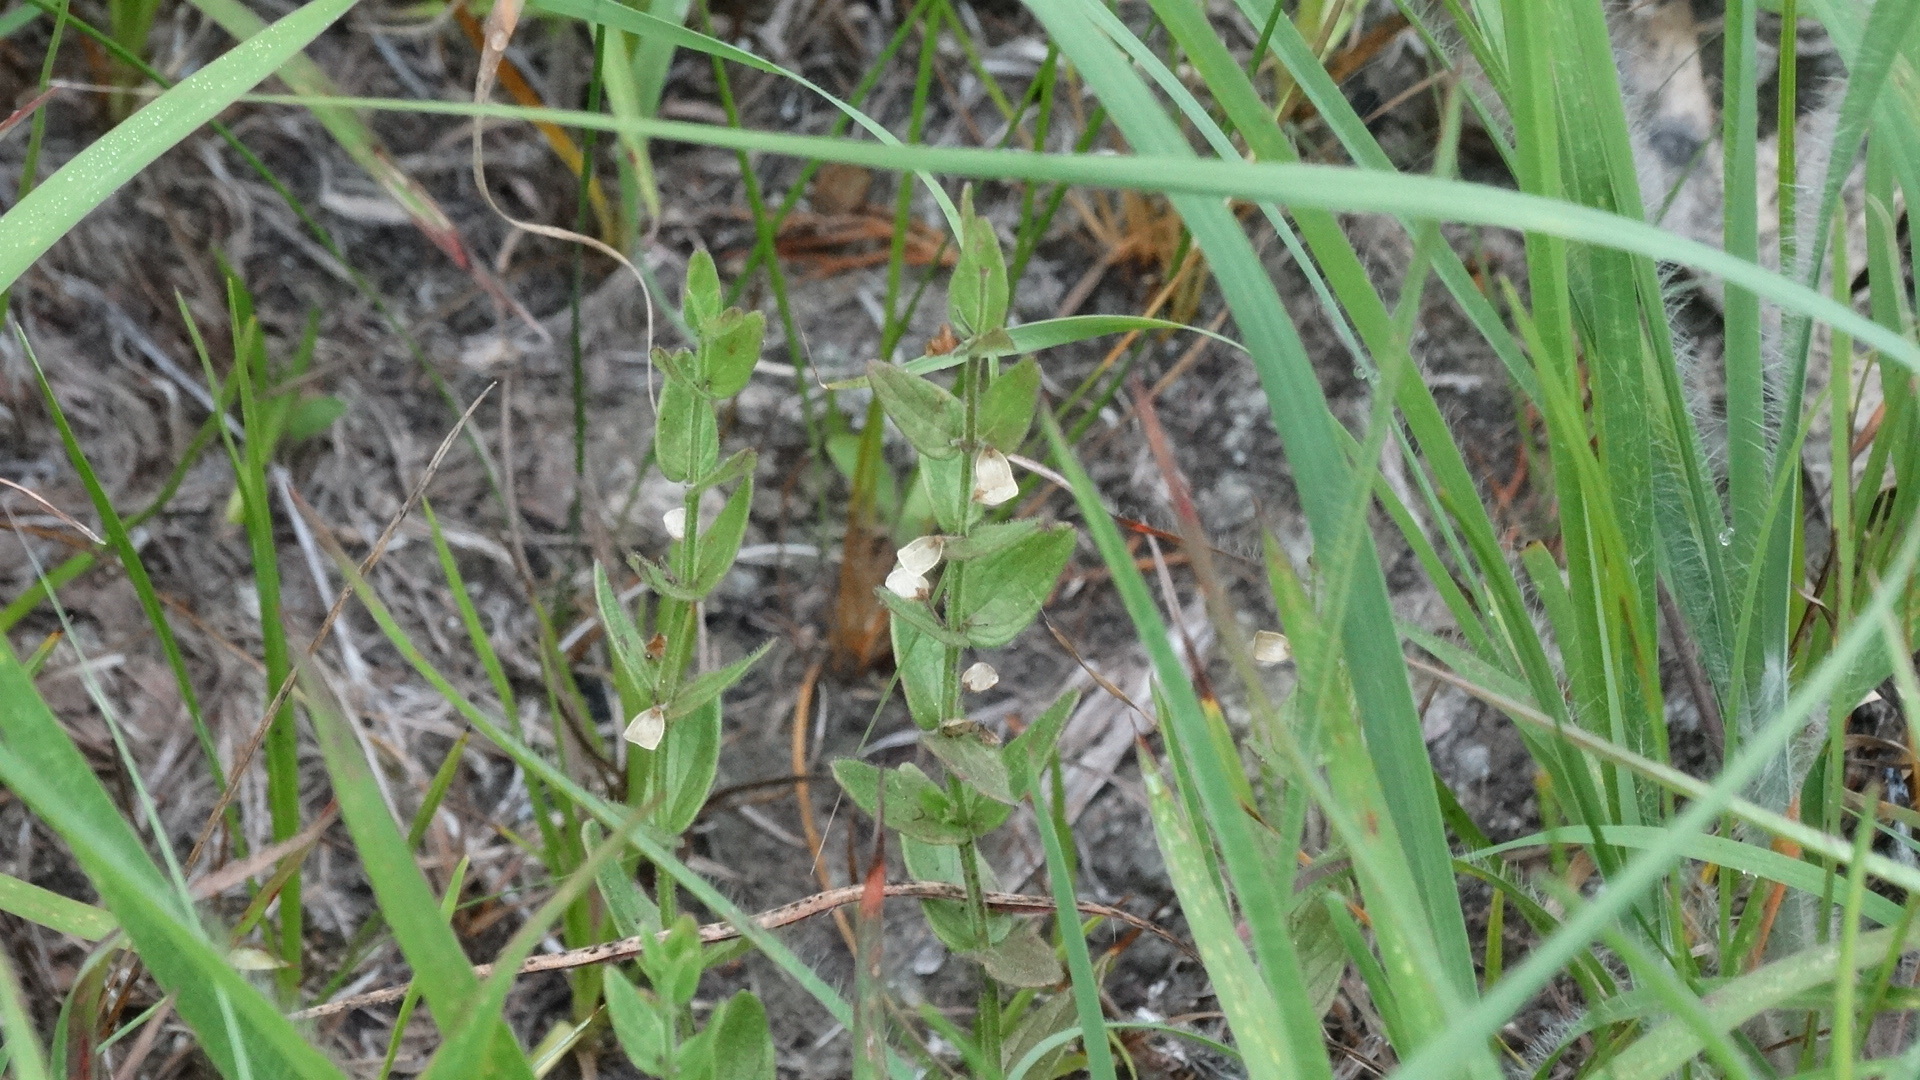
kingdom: Plantae
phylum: Tracheophyta
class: Magnoliopsida
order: Lamiales
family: Lamiaceae
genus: Scutellaria
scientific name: Scutellaria parvula
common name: Little scullcap
